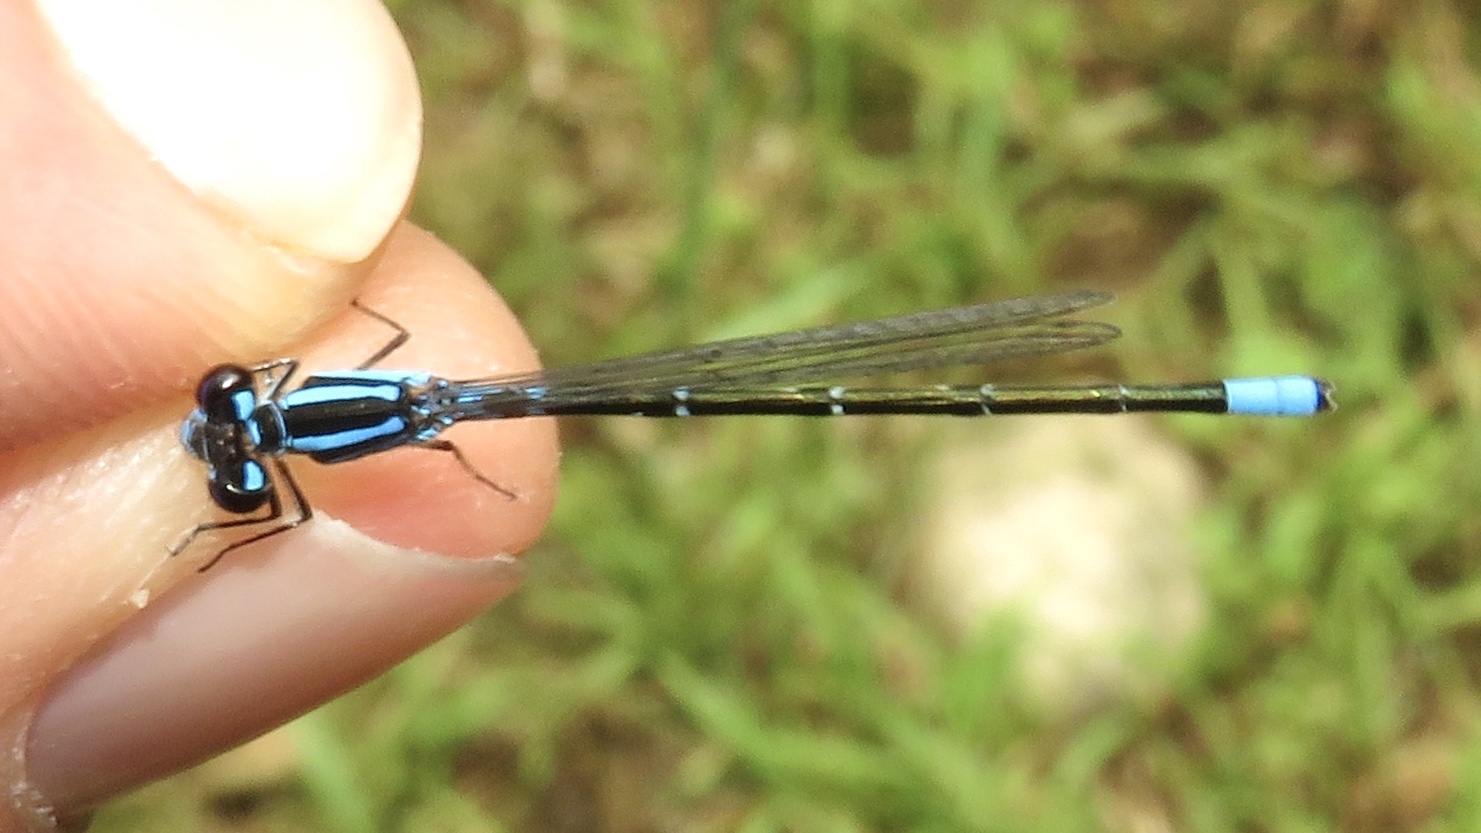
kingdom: Animalia
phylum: Arthropoda
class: Insecta
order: Odonata
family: Coenagrionidae
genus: Enallagma
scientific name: Enallagma geminatum
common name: Skimming bluet
